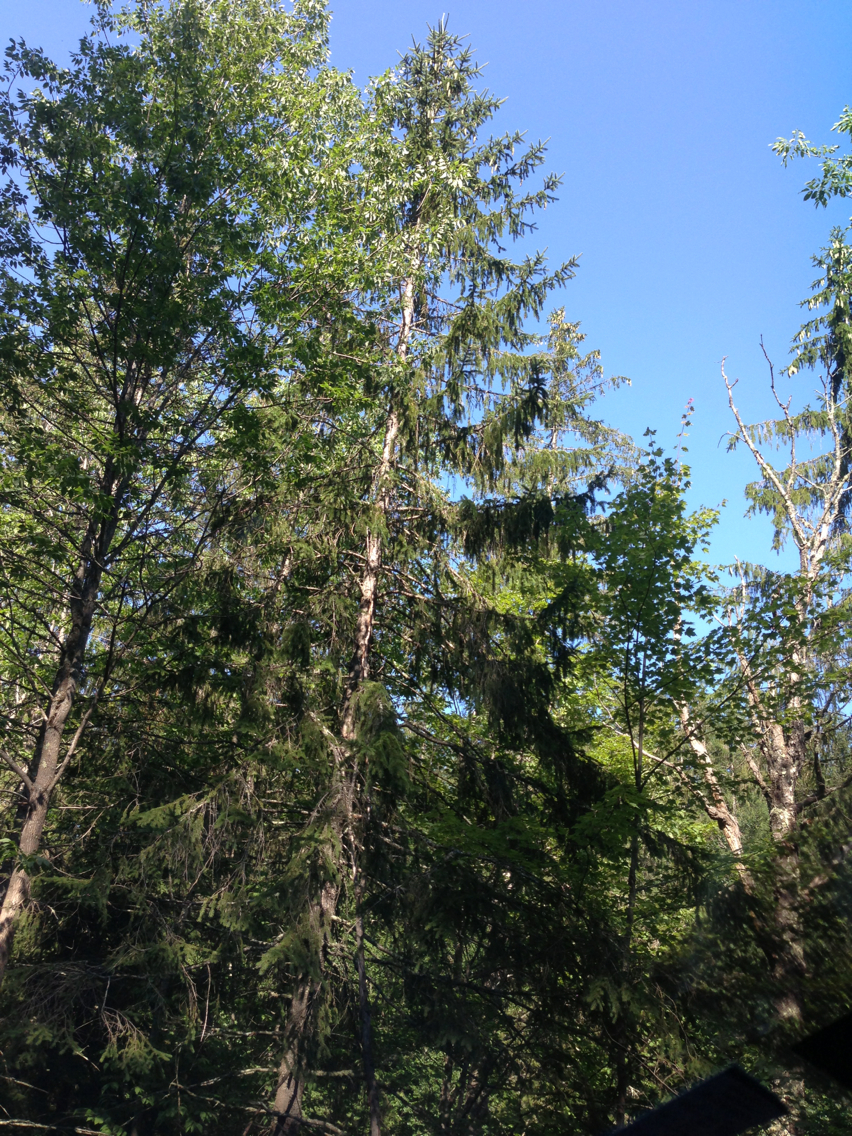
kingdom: Plantae
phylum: Tracheophyta
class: Pinopsida
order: Pinales
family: Pinaceae
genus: Picea
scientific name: Picea abies
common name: Norway spruce
